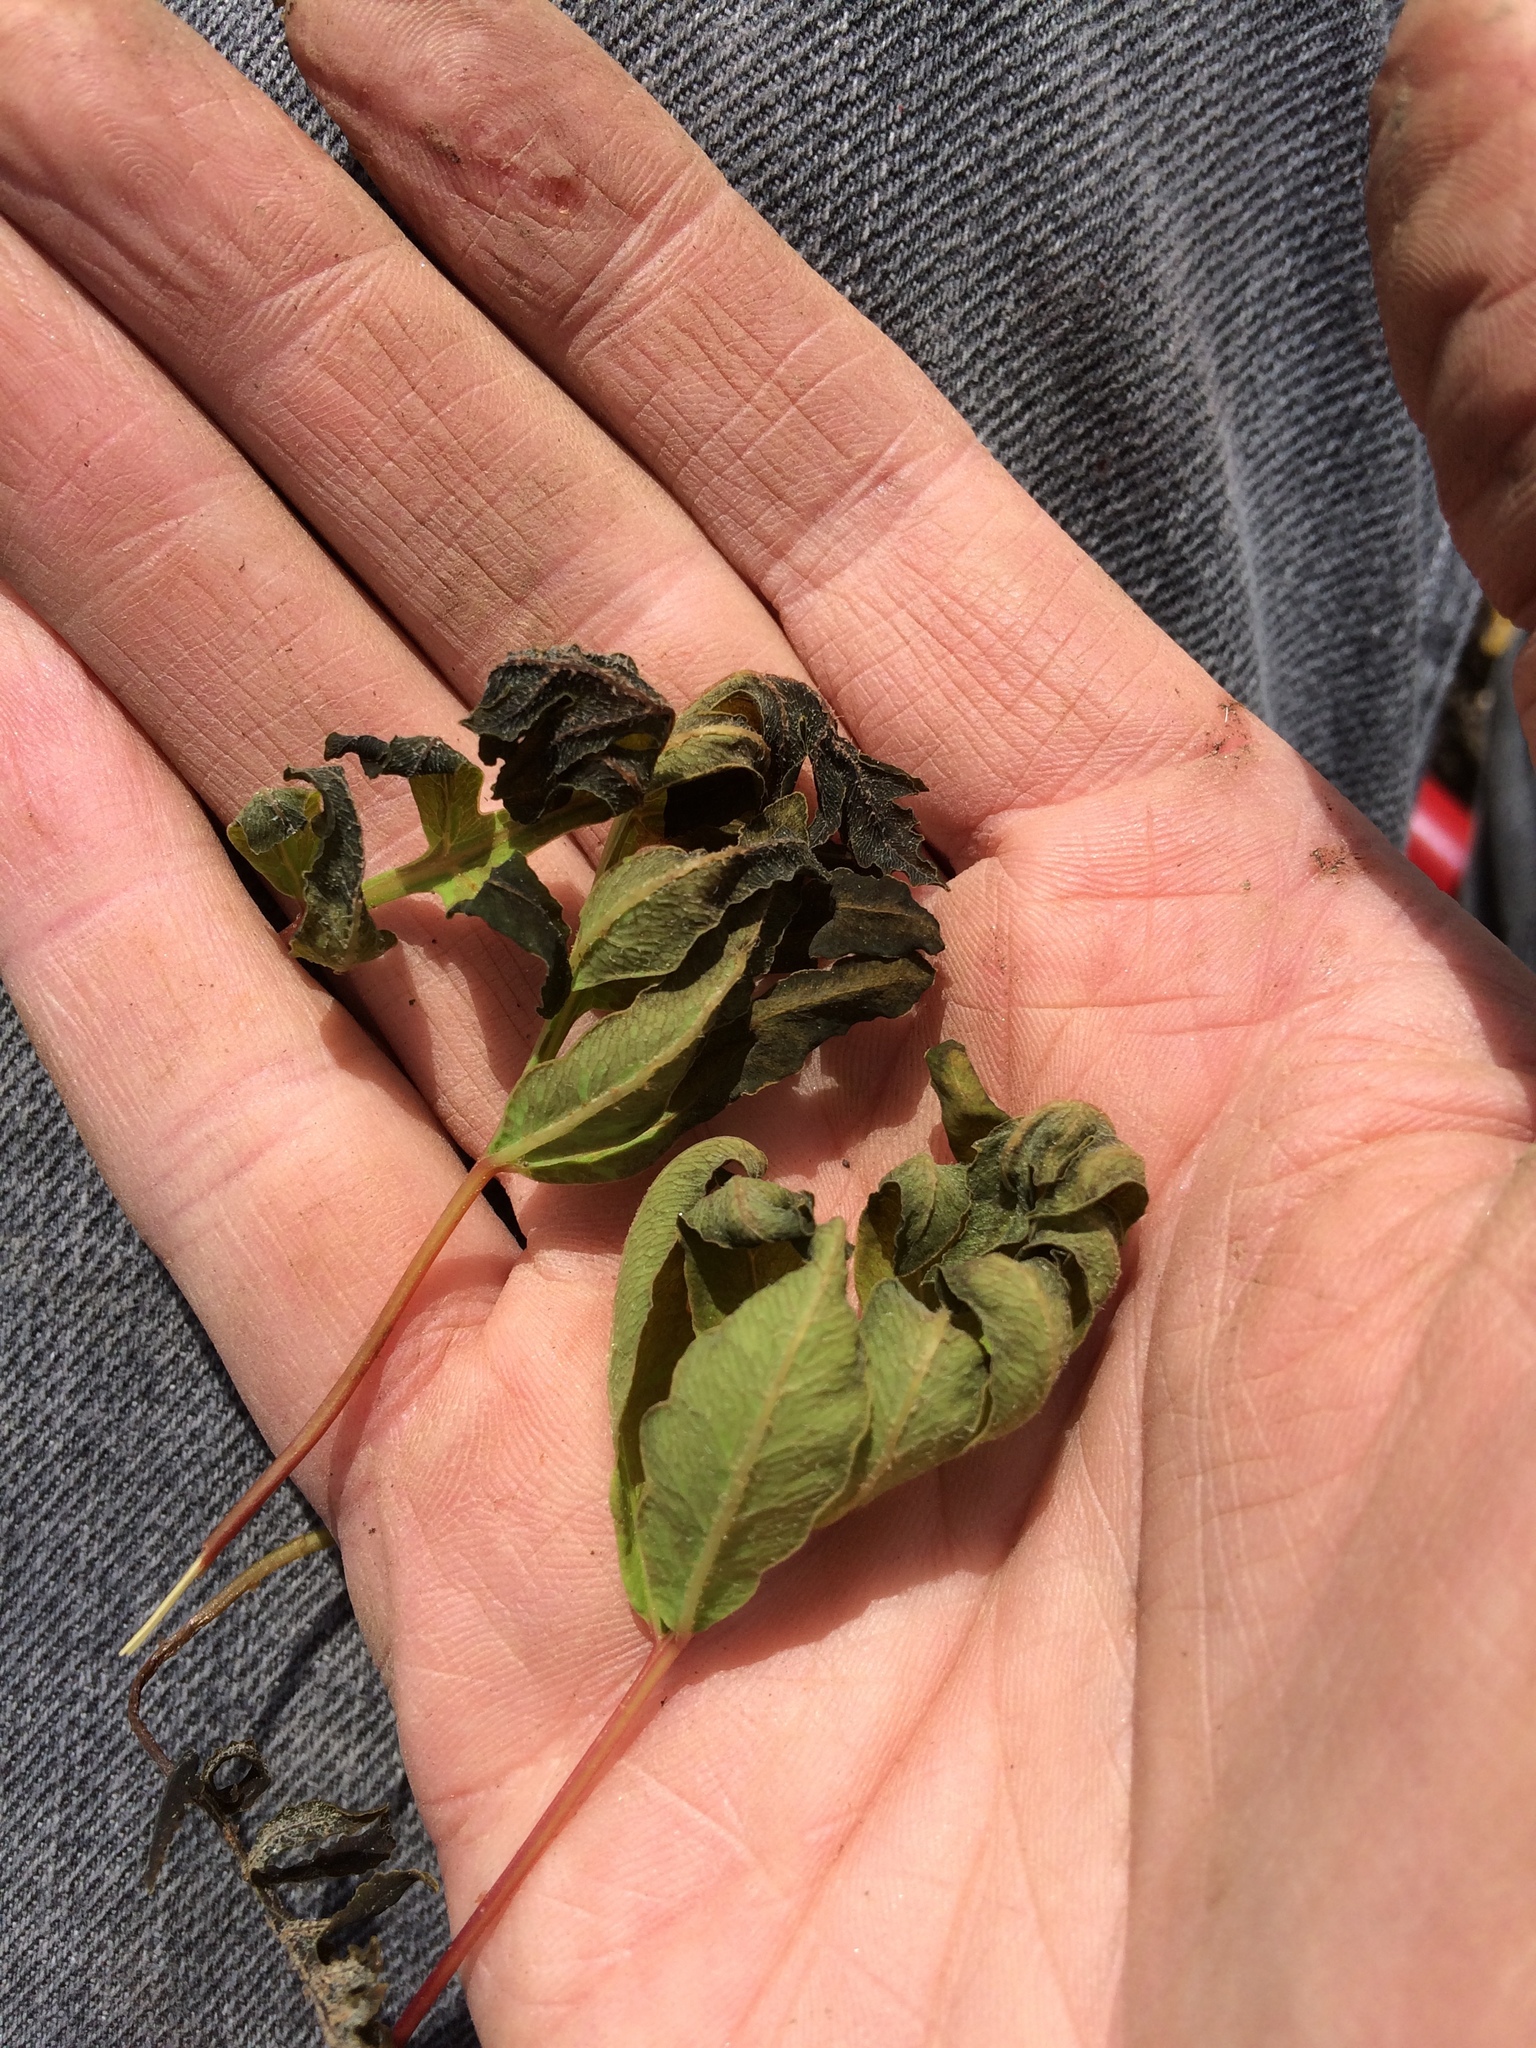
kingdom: Plantae
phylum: Tracheophyta
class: Polypodiopsida
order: Polypodiales
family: Onocleaceae
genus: Onoclea
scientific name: Onoclea sensibilis
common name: Sensitive fern
